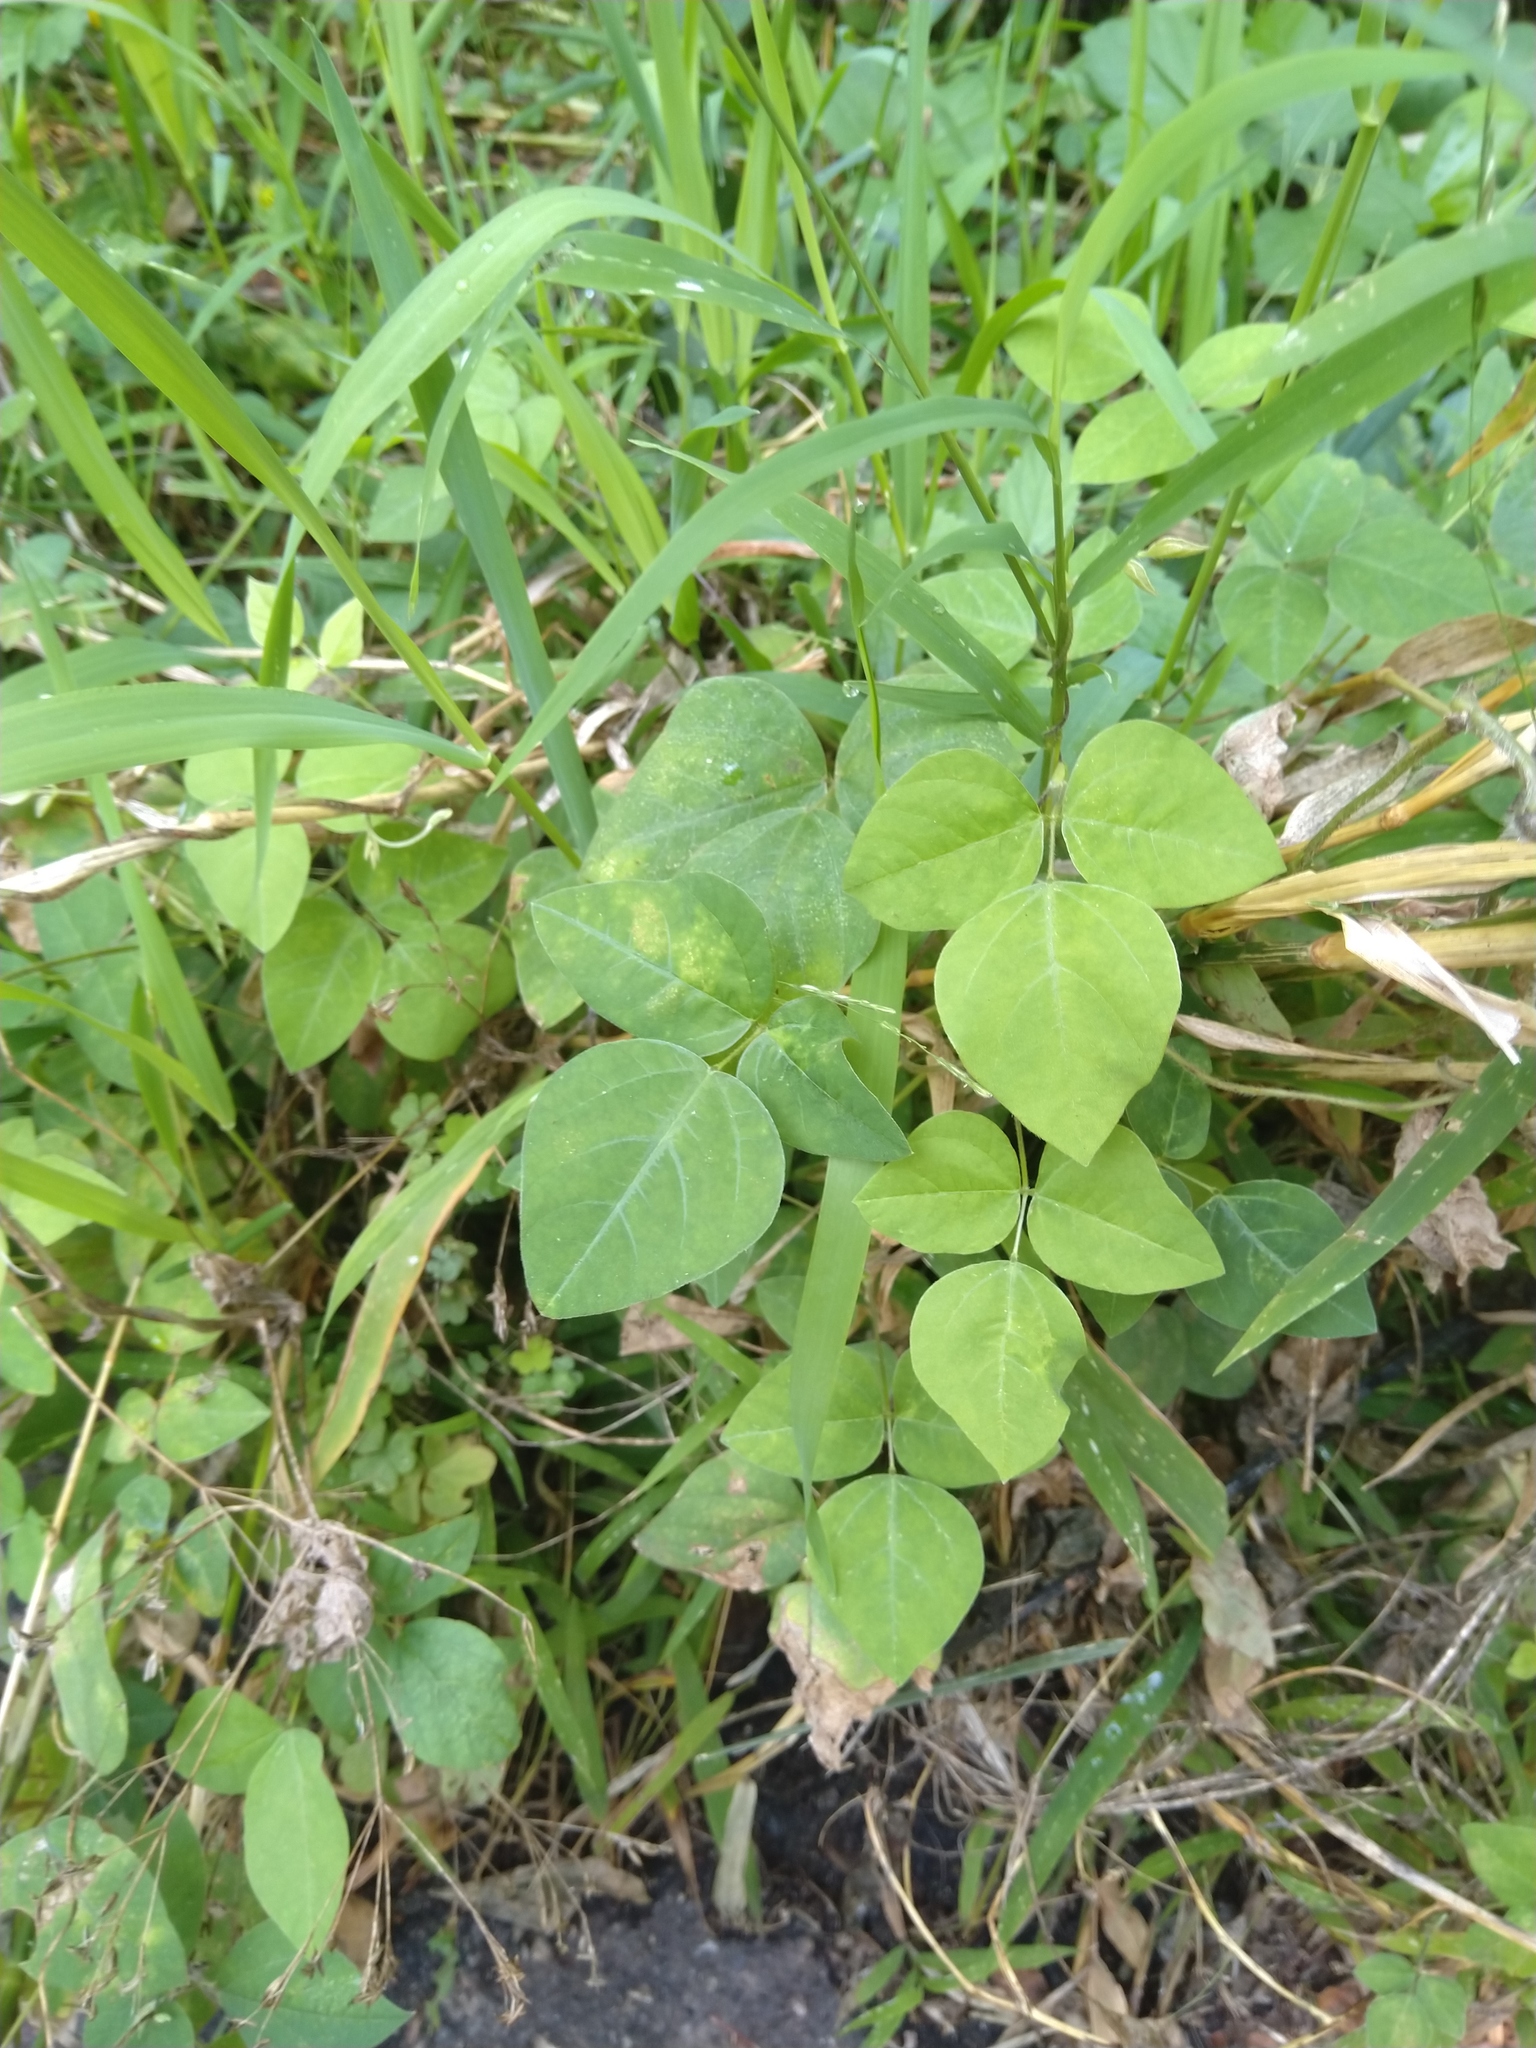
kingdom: Plantae
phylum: Tracheophyta
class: Magnoliopsida
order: Fabales
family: Fabaceae
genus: Amphicarpaea
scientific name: Amphicarpaea bracteata
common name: American hog peanut
